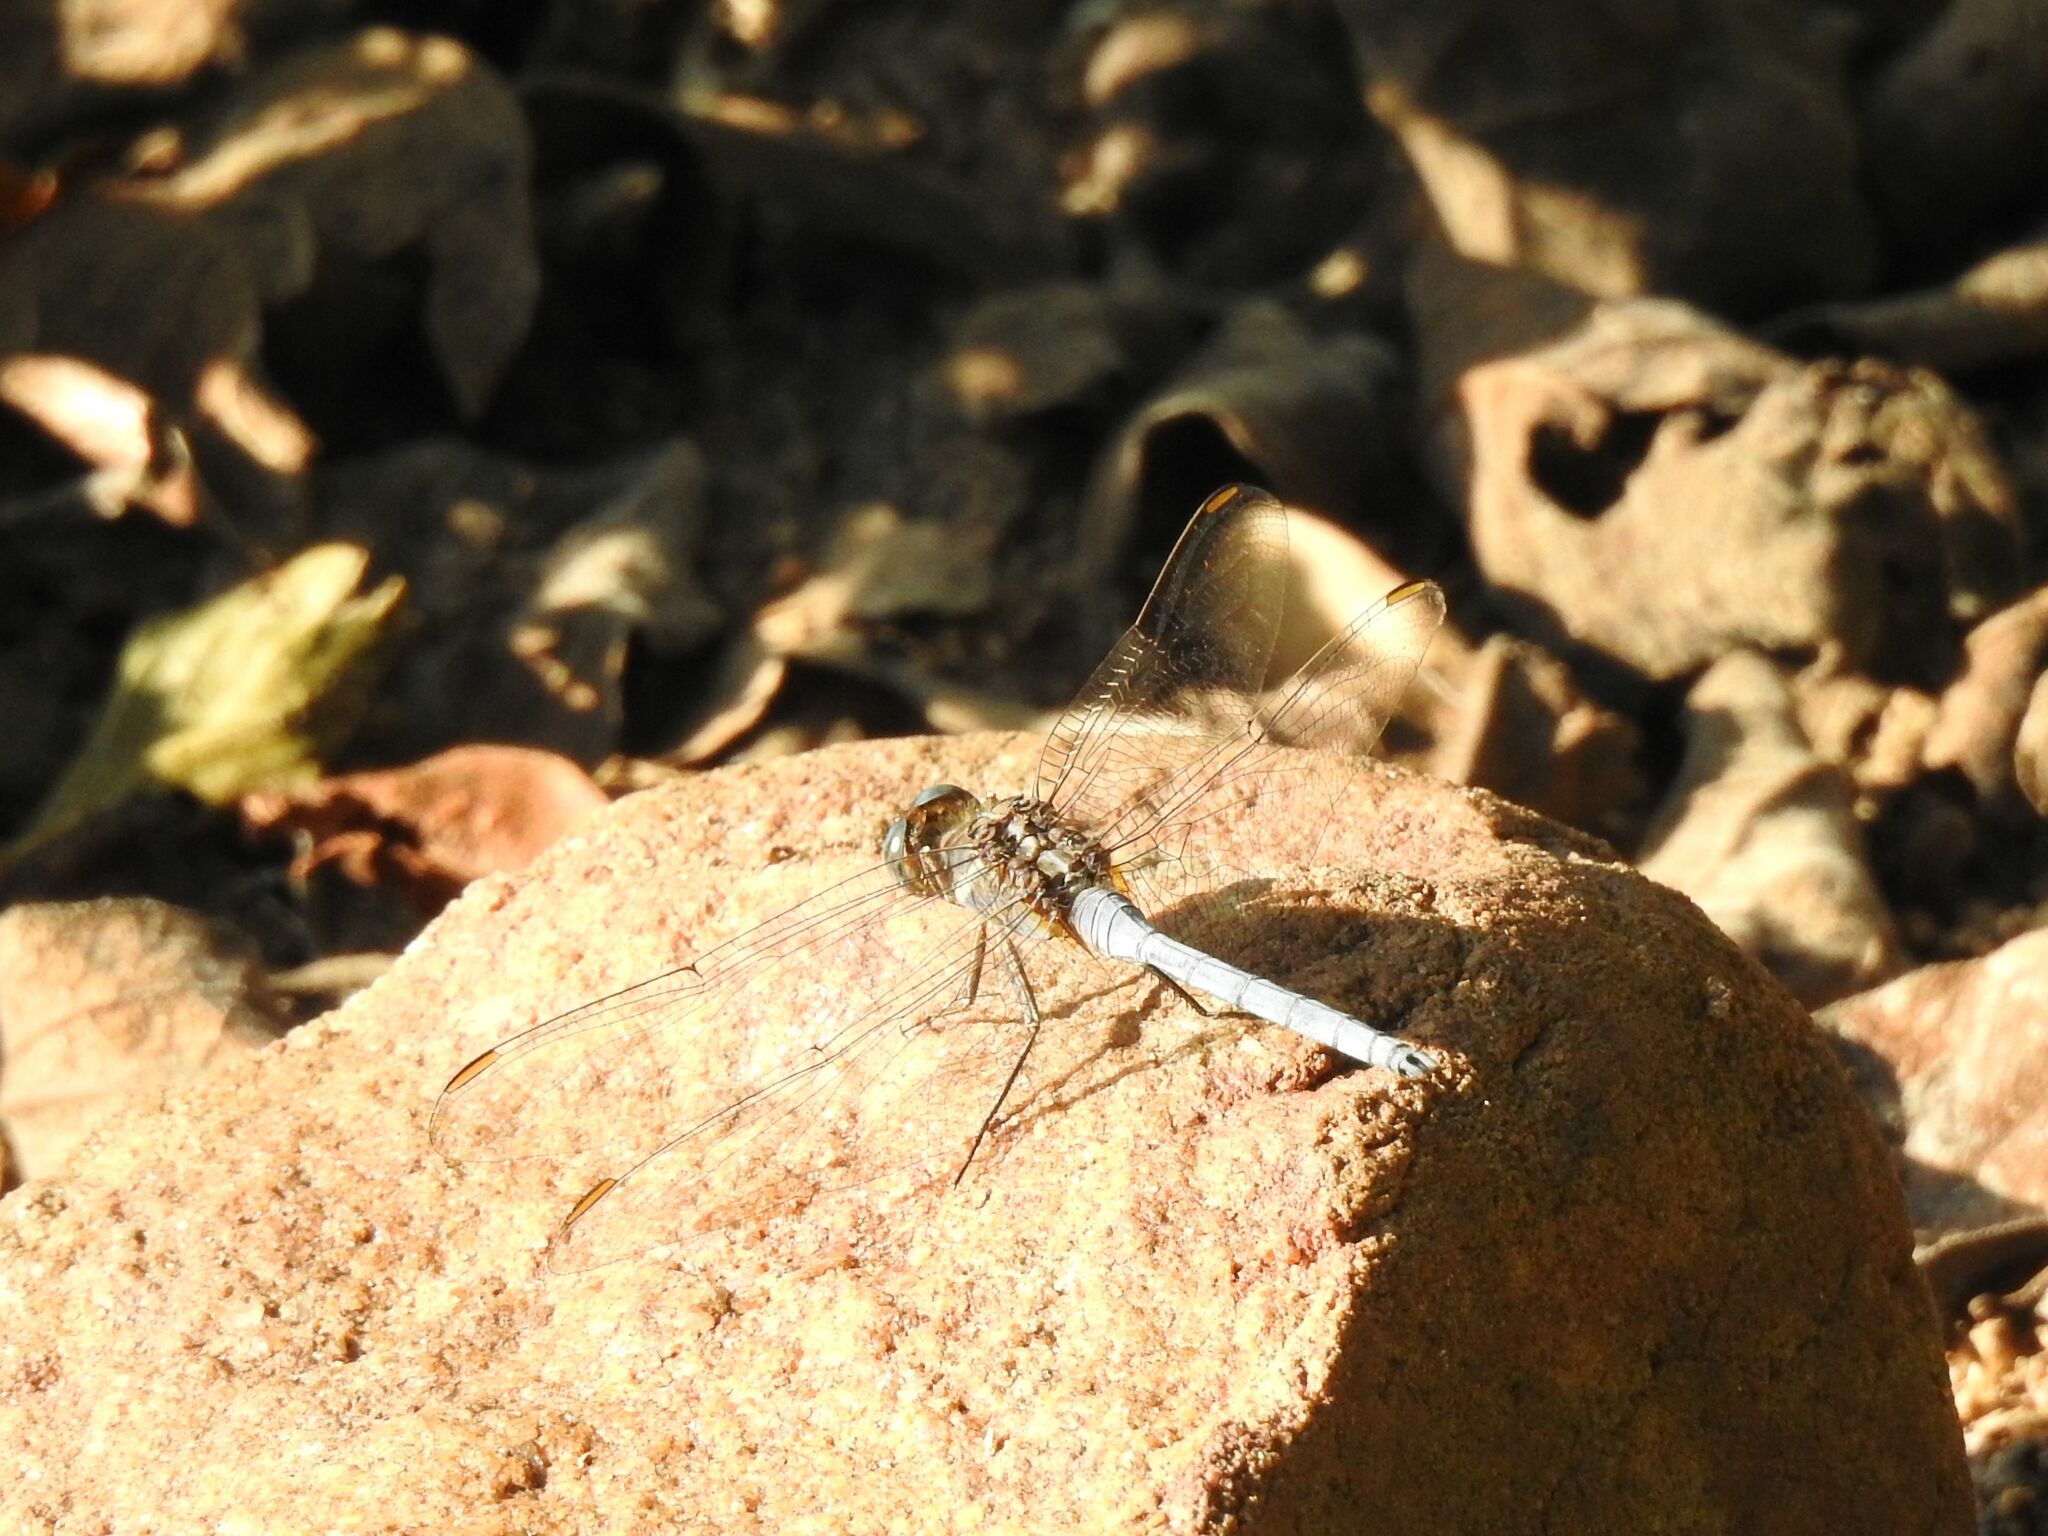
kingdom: Animalia
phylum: Arthropoda
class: Insecta
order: Odonata
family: Libellulidae
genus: Orthetrum
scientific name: Orthetrum chrysostigma
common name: Epaulet skimmer
